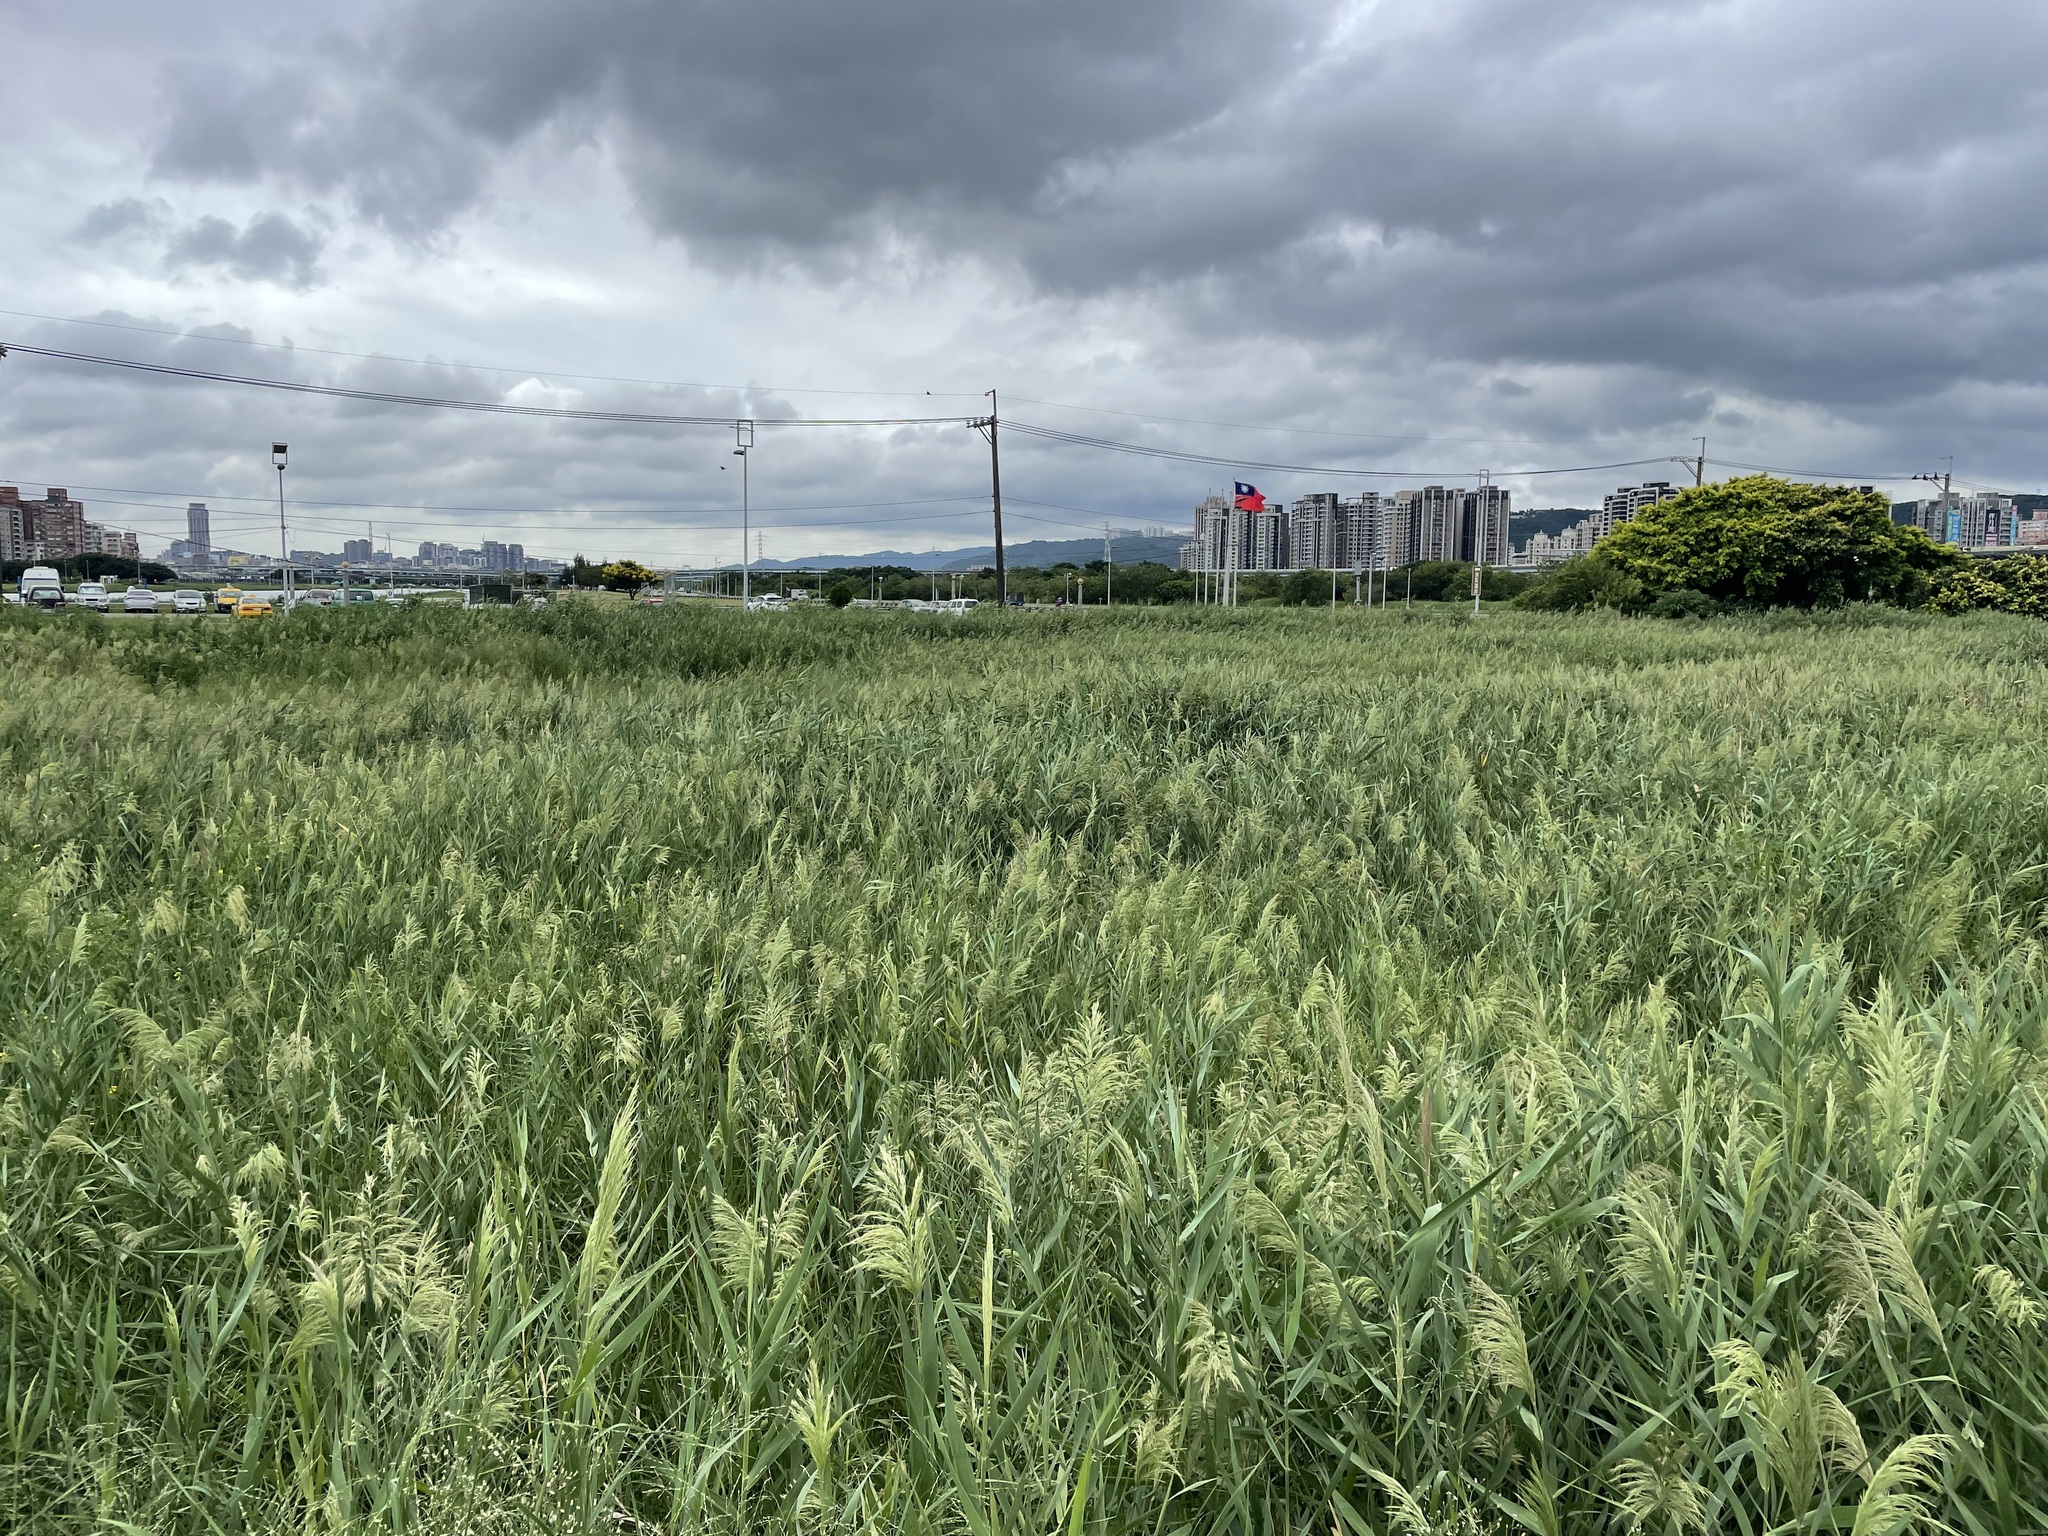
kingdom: Plantae
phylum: Tracheophyta
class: Liliopsida
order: Poales
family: Poaceae
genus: Phragmites
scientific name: Phragmites australis
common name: Common reed
